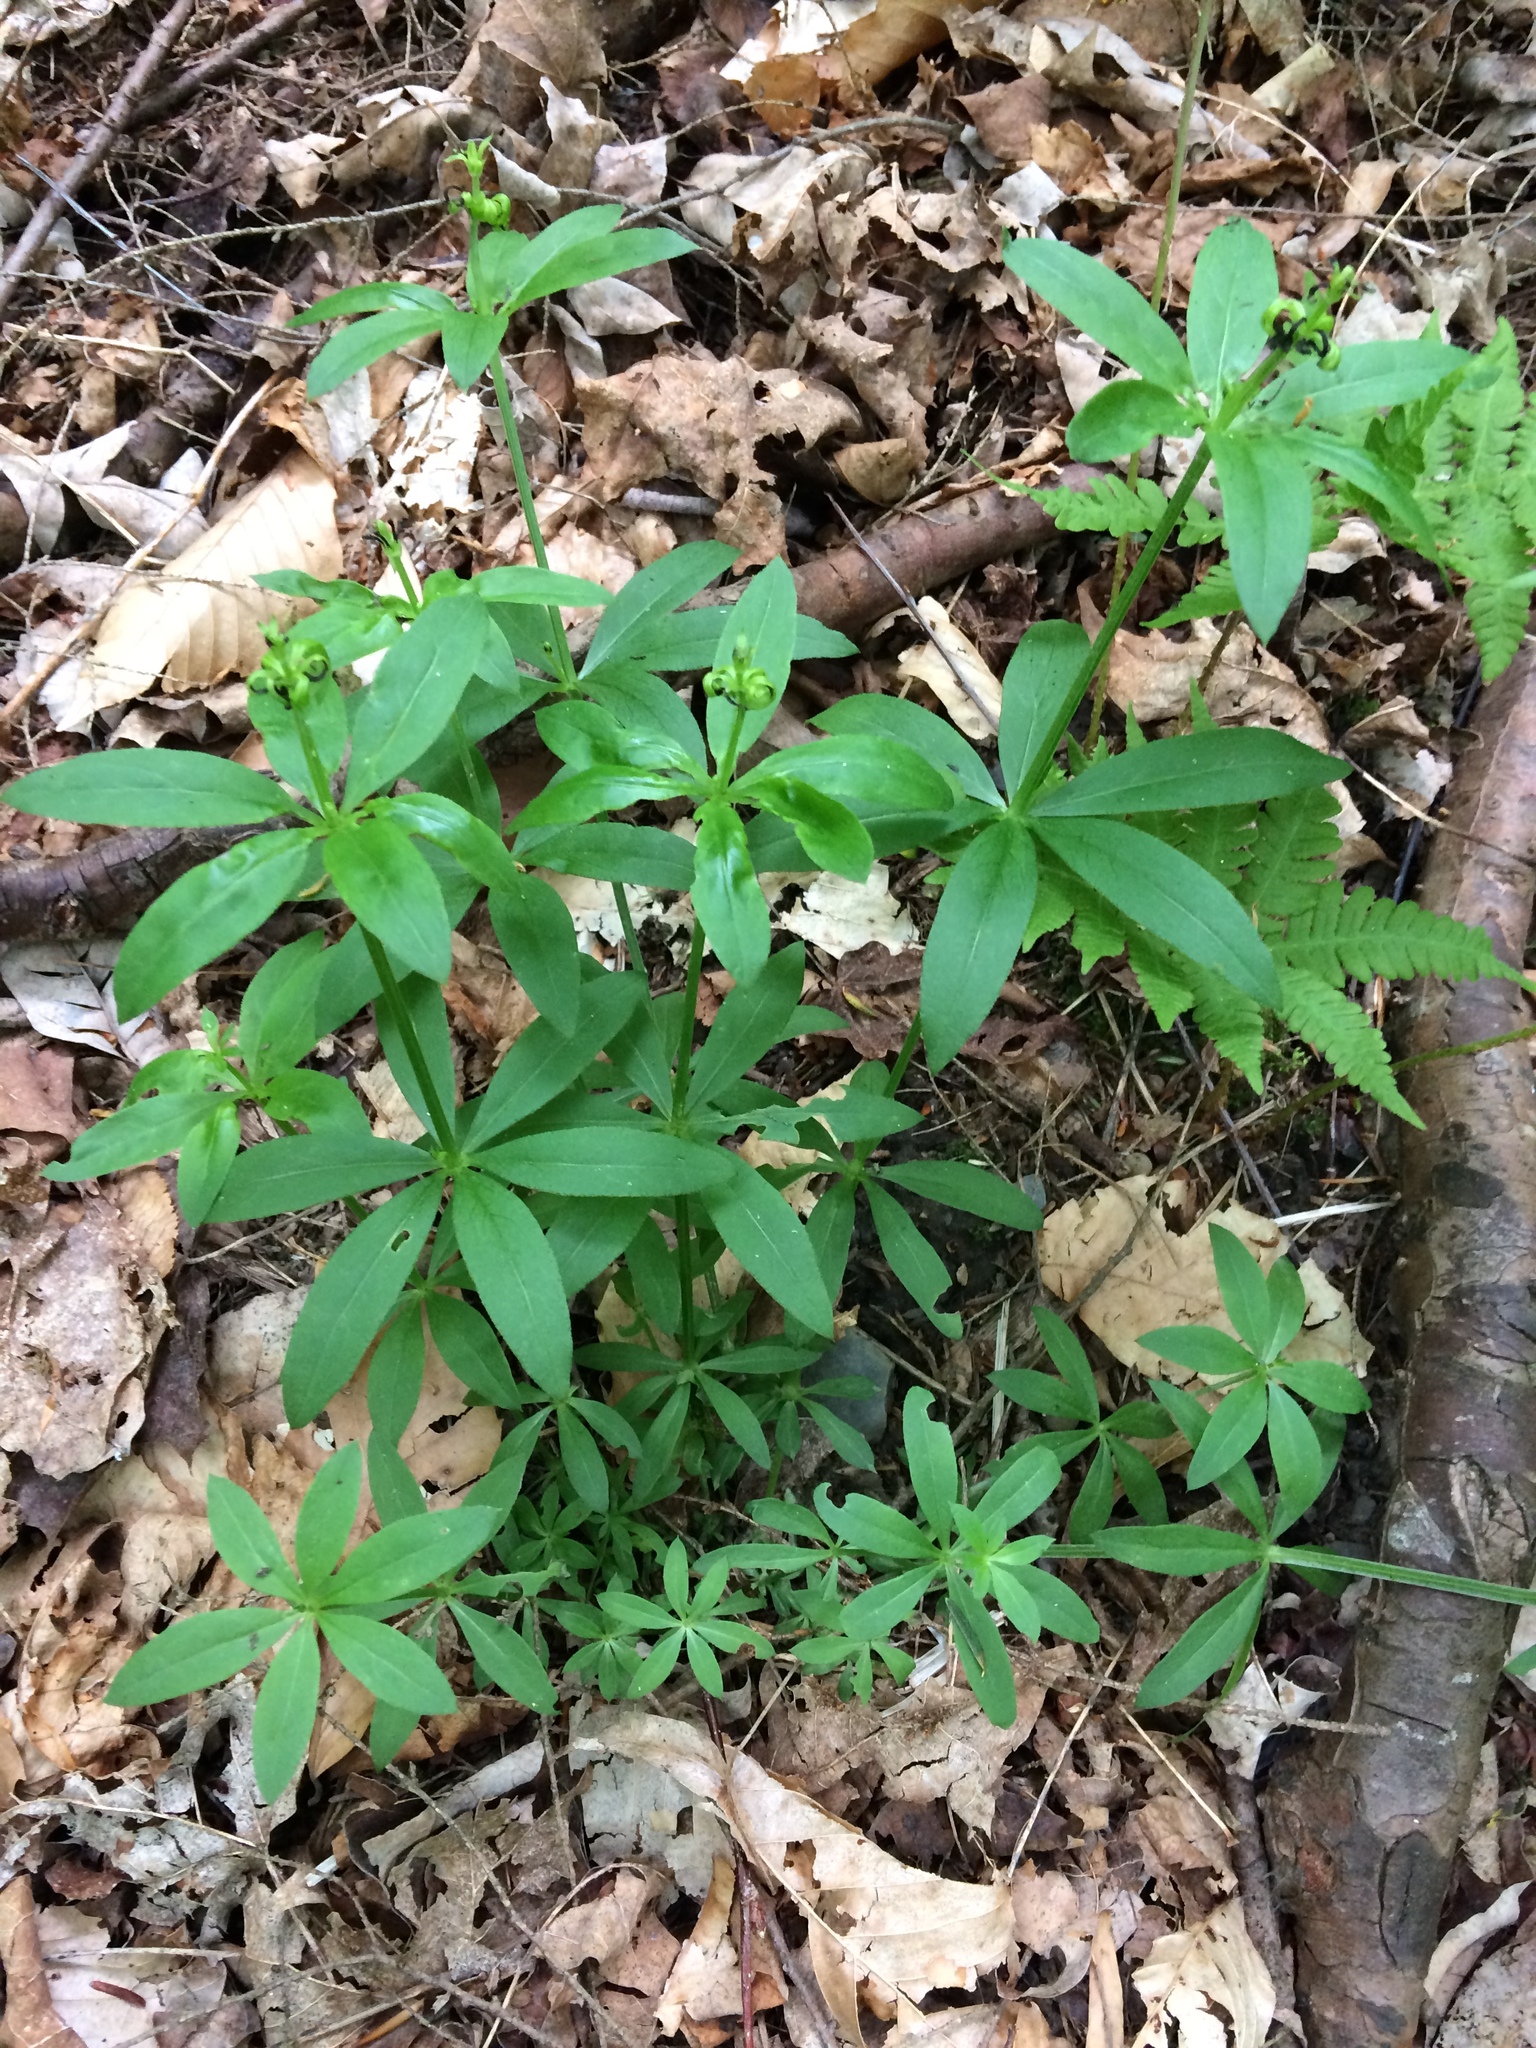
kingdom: Plantae
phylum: Tracheophyta
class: Magnoliopsida
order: Gentianales
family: Rubiaceae
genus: Galium
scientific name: Galium triflorum
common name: Fragrant bedstraw
